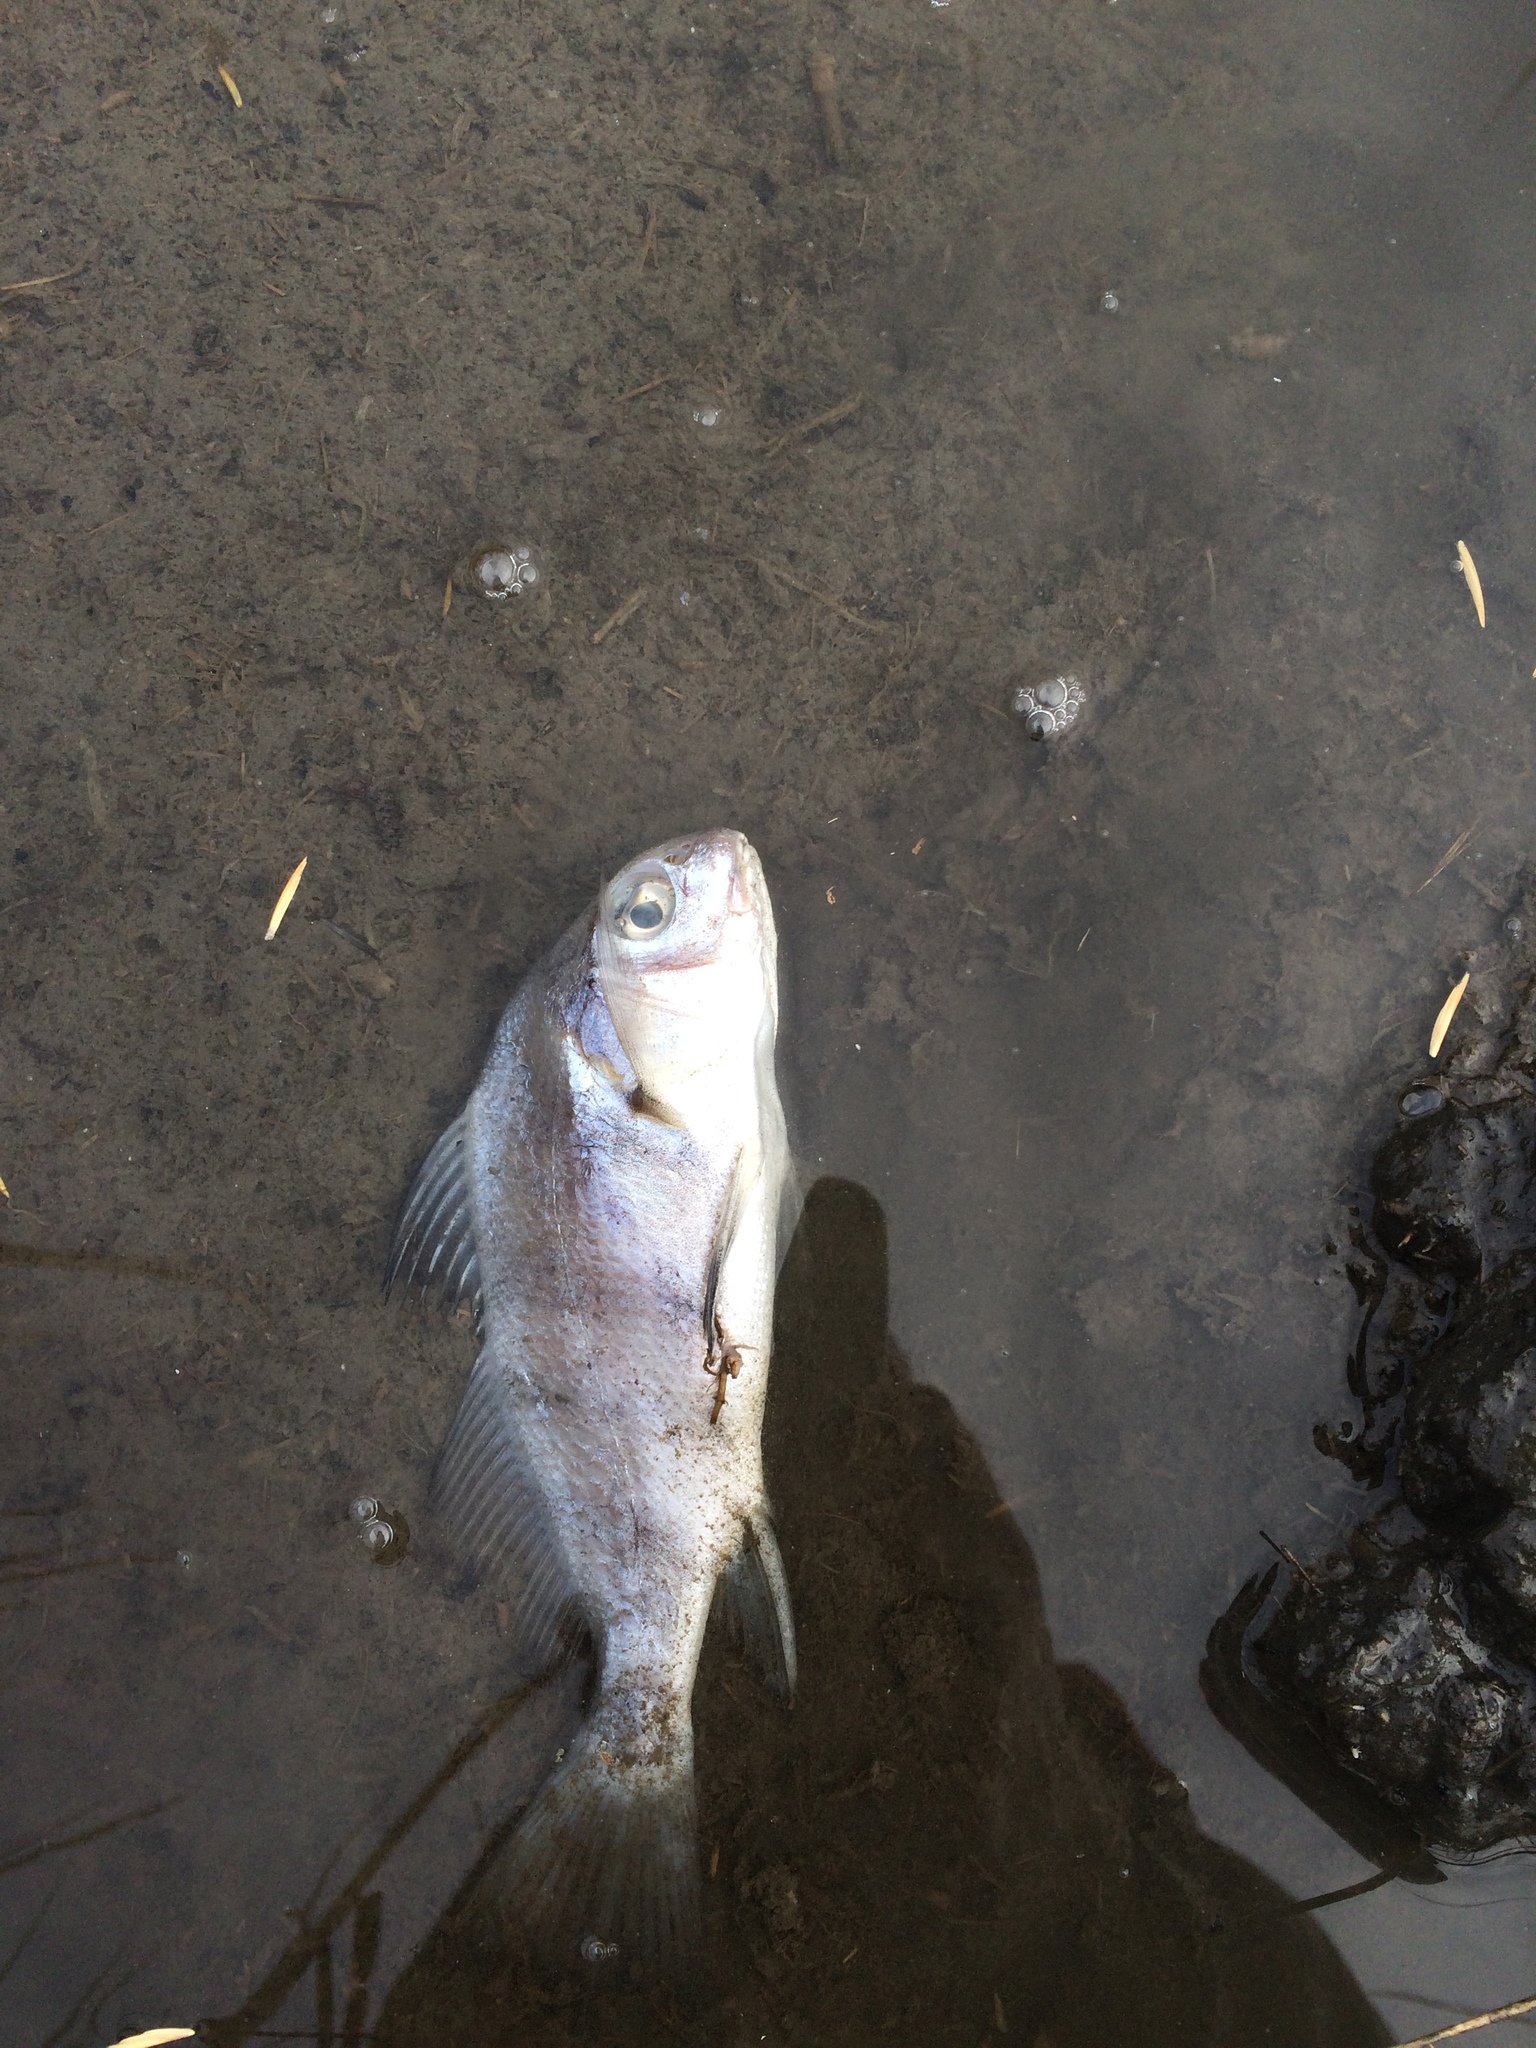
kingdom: Animalia
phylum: Chordata
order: Perciformes
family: Sciaenidae
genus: Pogonias
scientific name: Pogonias cromis
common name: Black drum
